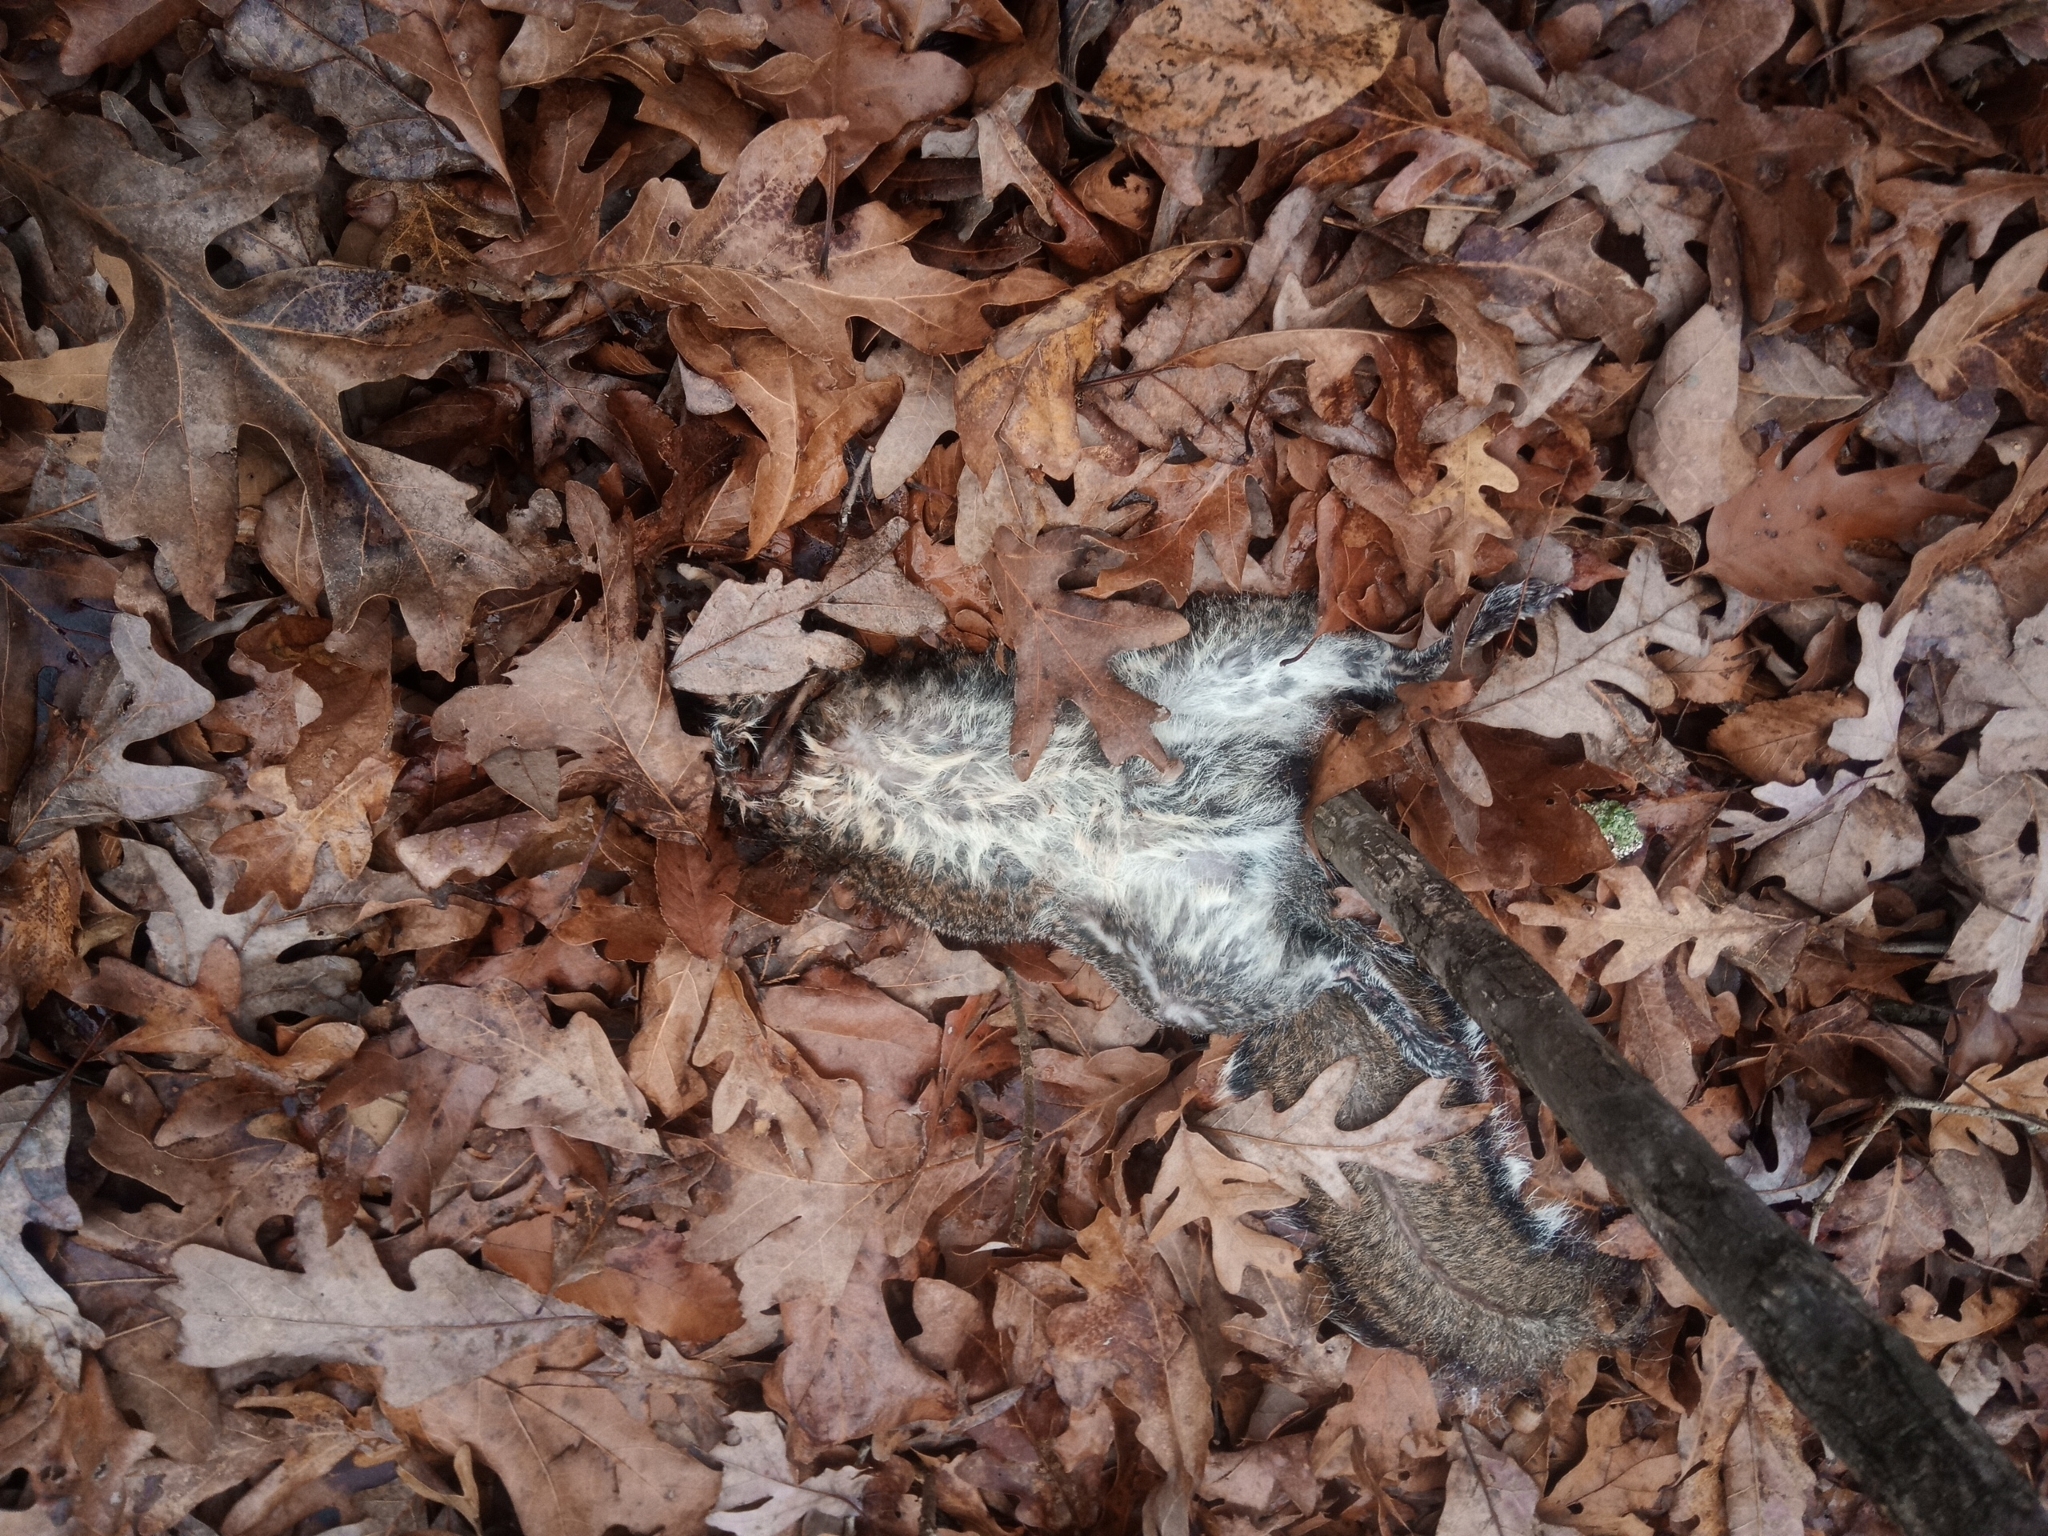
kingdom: Animalia
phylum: Chordata
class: Mammalia
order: Rodentia
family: Sciuridae
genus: Sciurus
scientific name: Sciurus carolinensis
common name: Eastern gray squirrel
